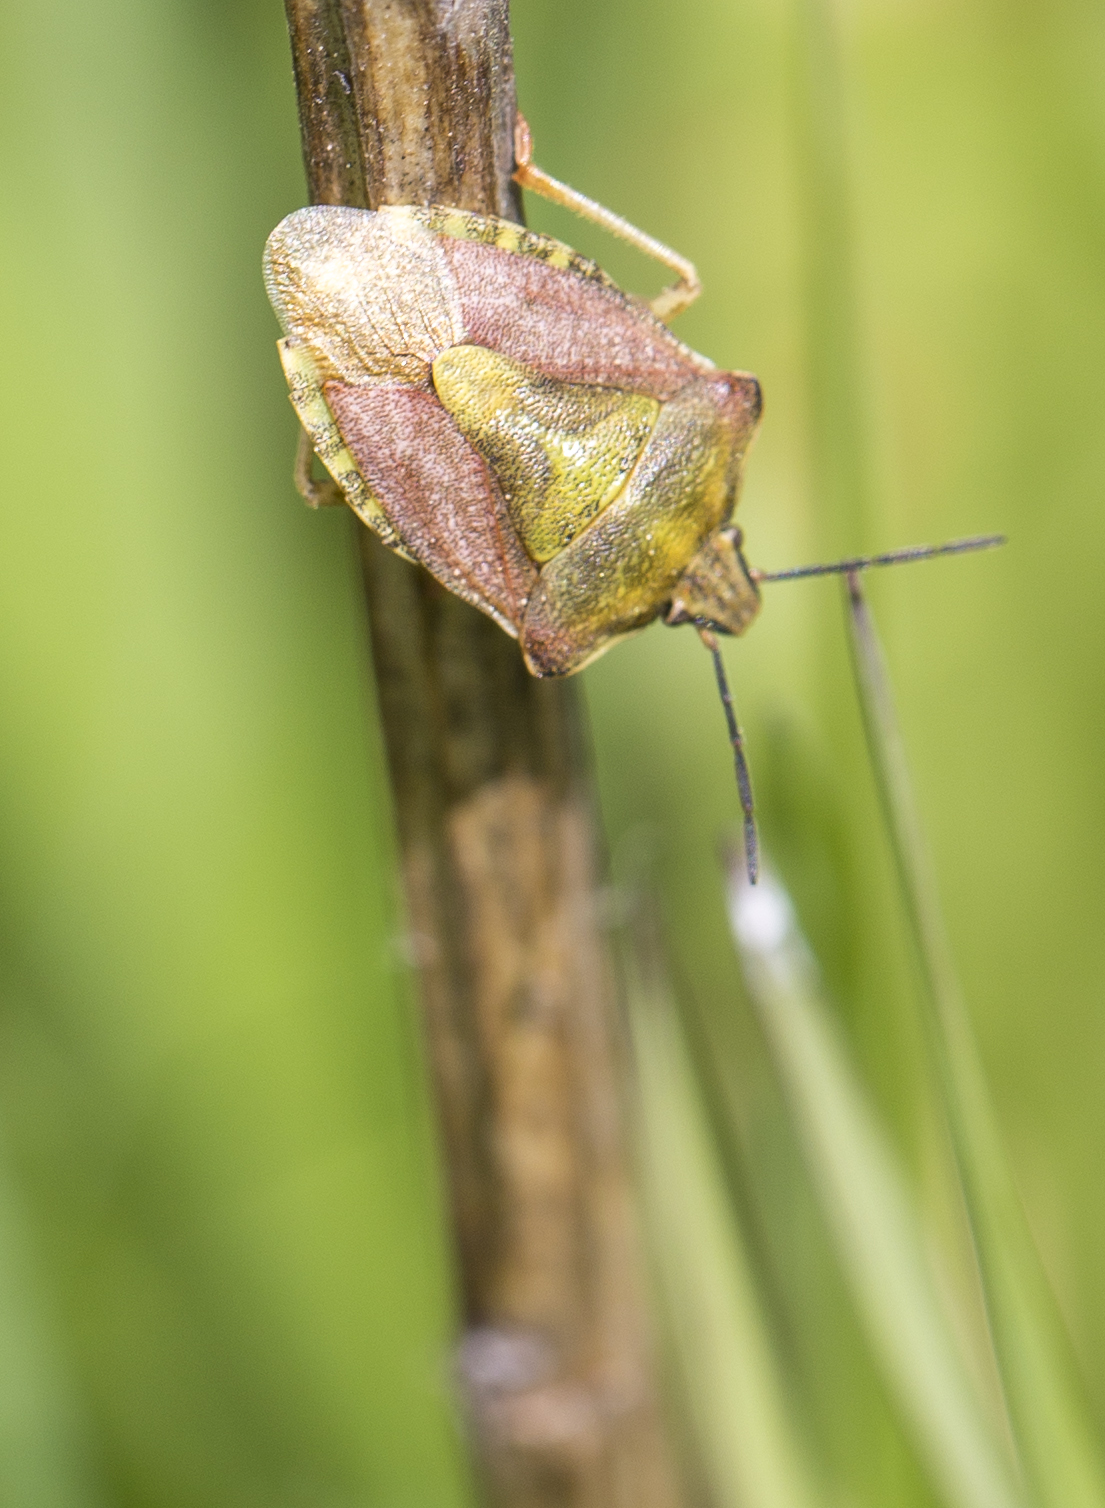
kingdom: Animalia
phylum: Arthropoda
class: Insecta
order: Hemiptera
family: Pentatomidae
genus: Carpocoris
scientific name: Carpocoris purpureipennis
